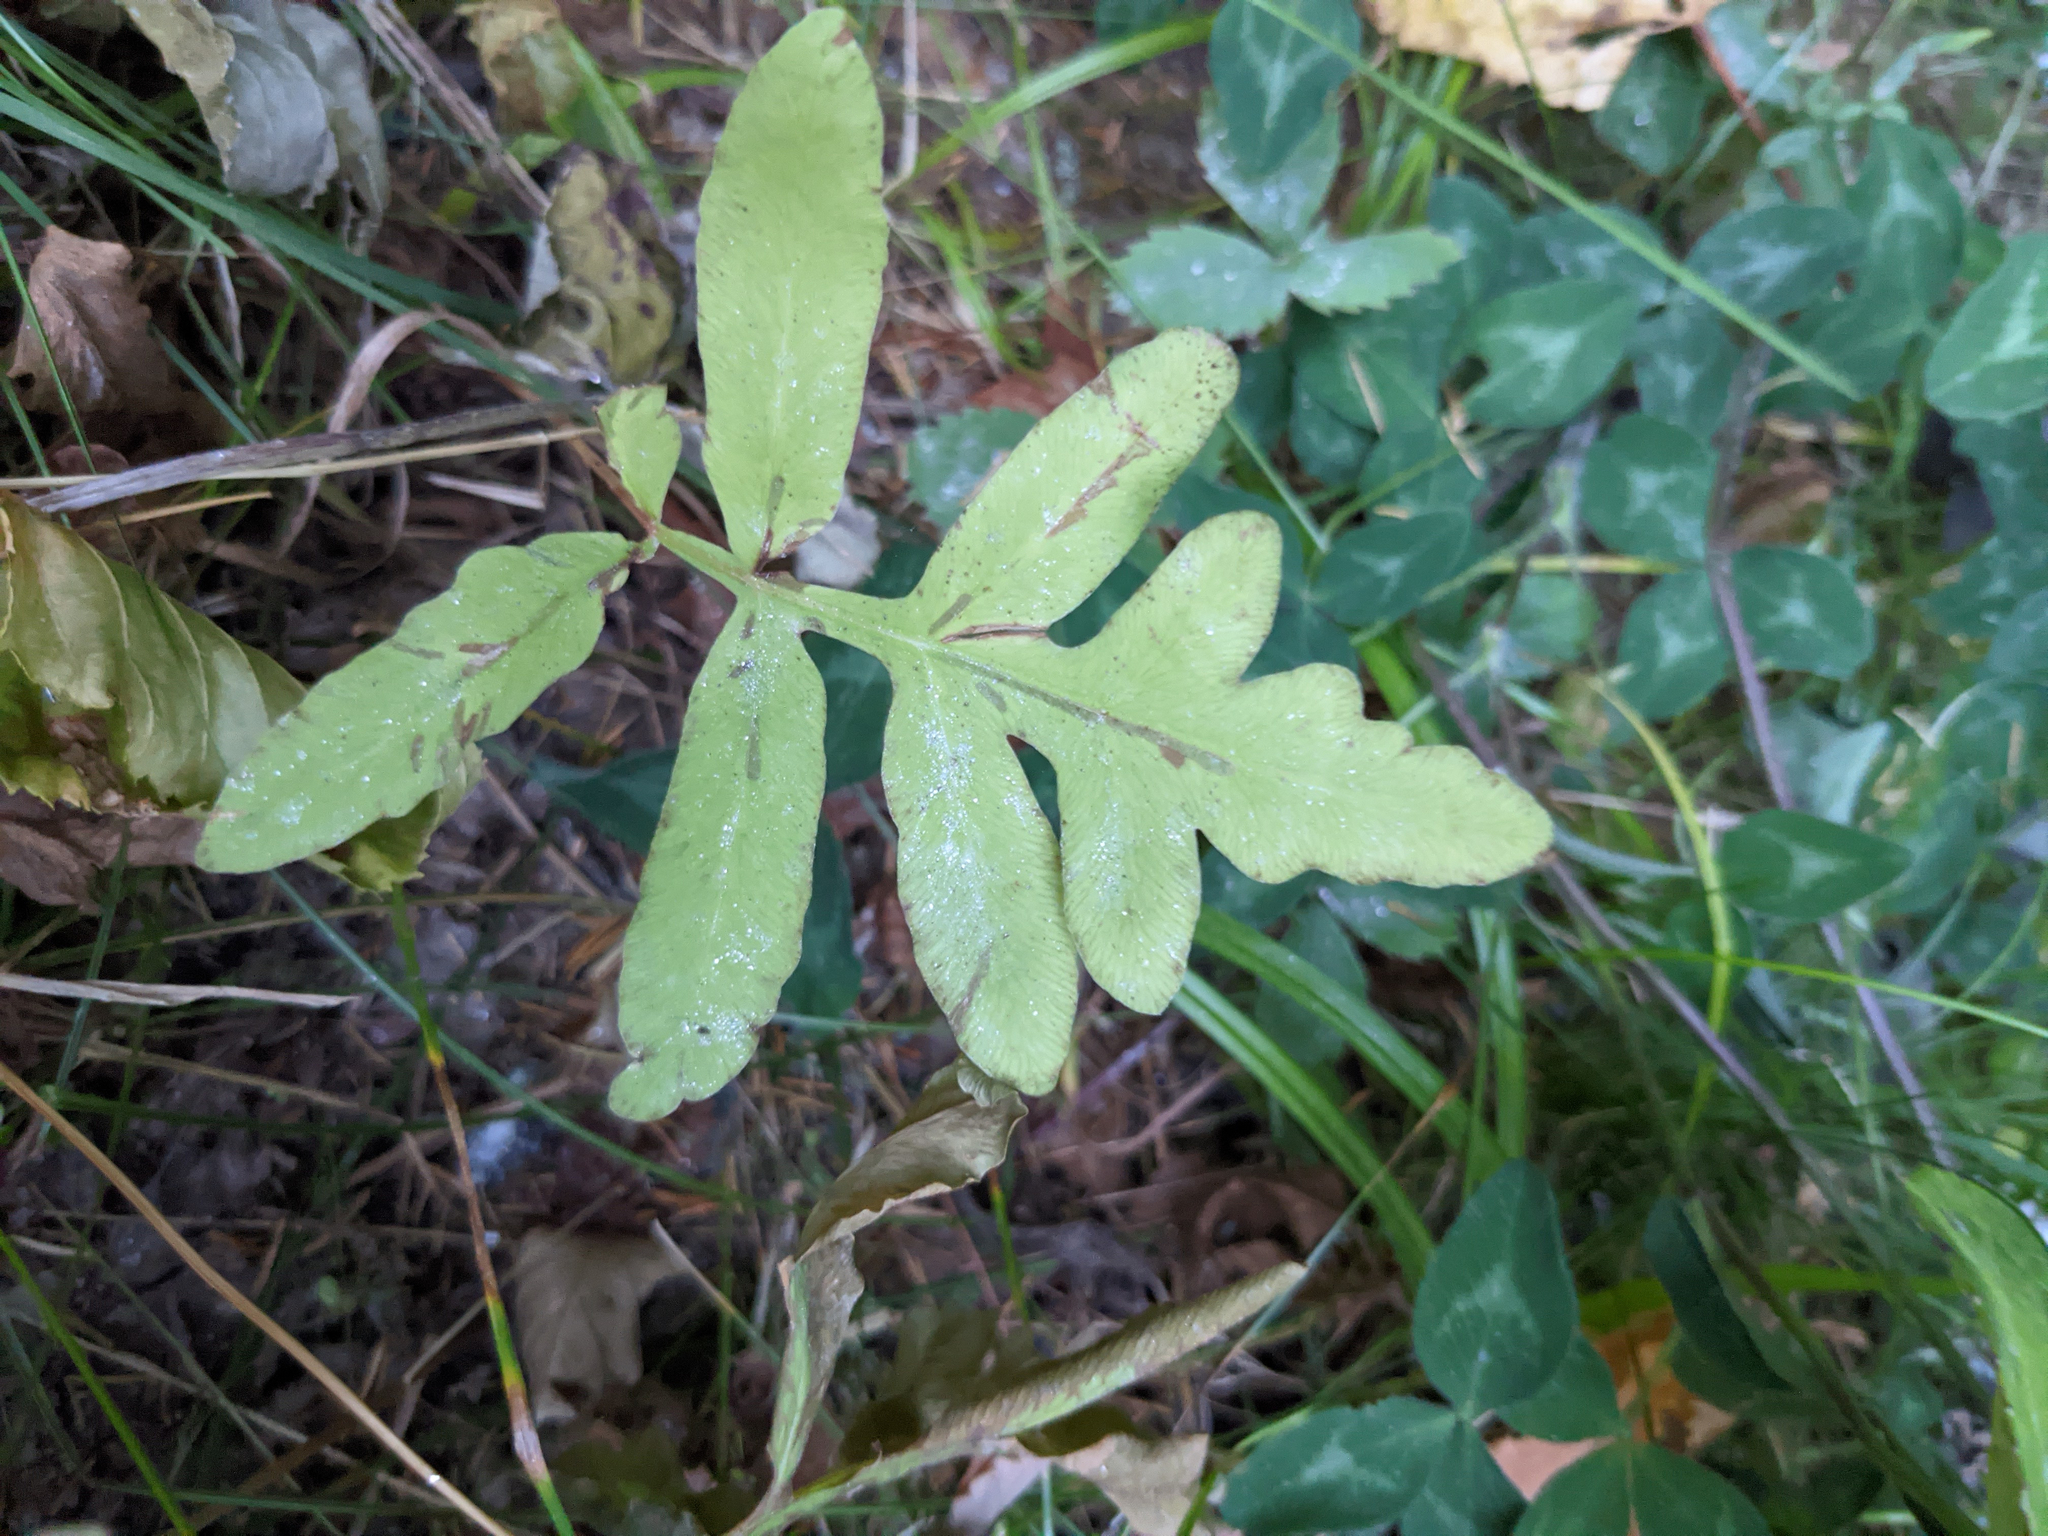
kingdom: Plantae
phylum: Tracheophyta
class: Polypodiopsida
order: Polypodiales
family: Onocleaceae
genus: Onoclea
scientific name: Onoclea sensibilis
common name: Sensitive fern
